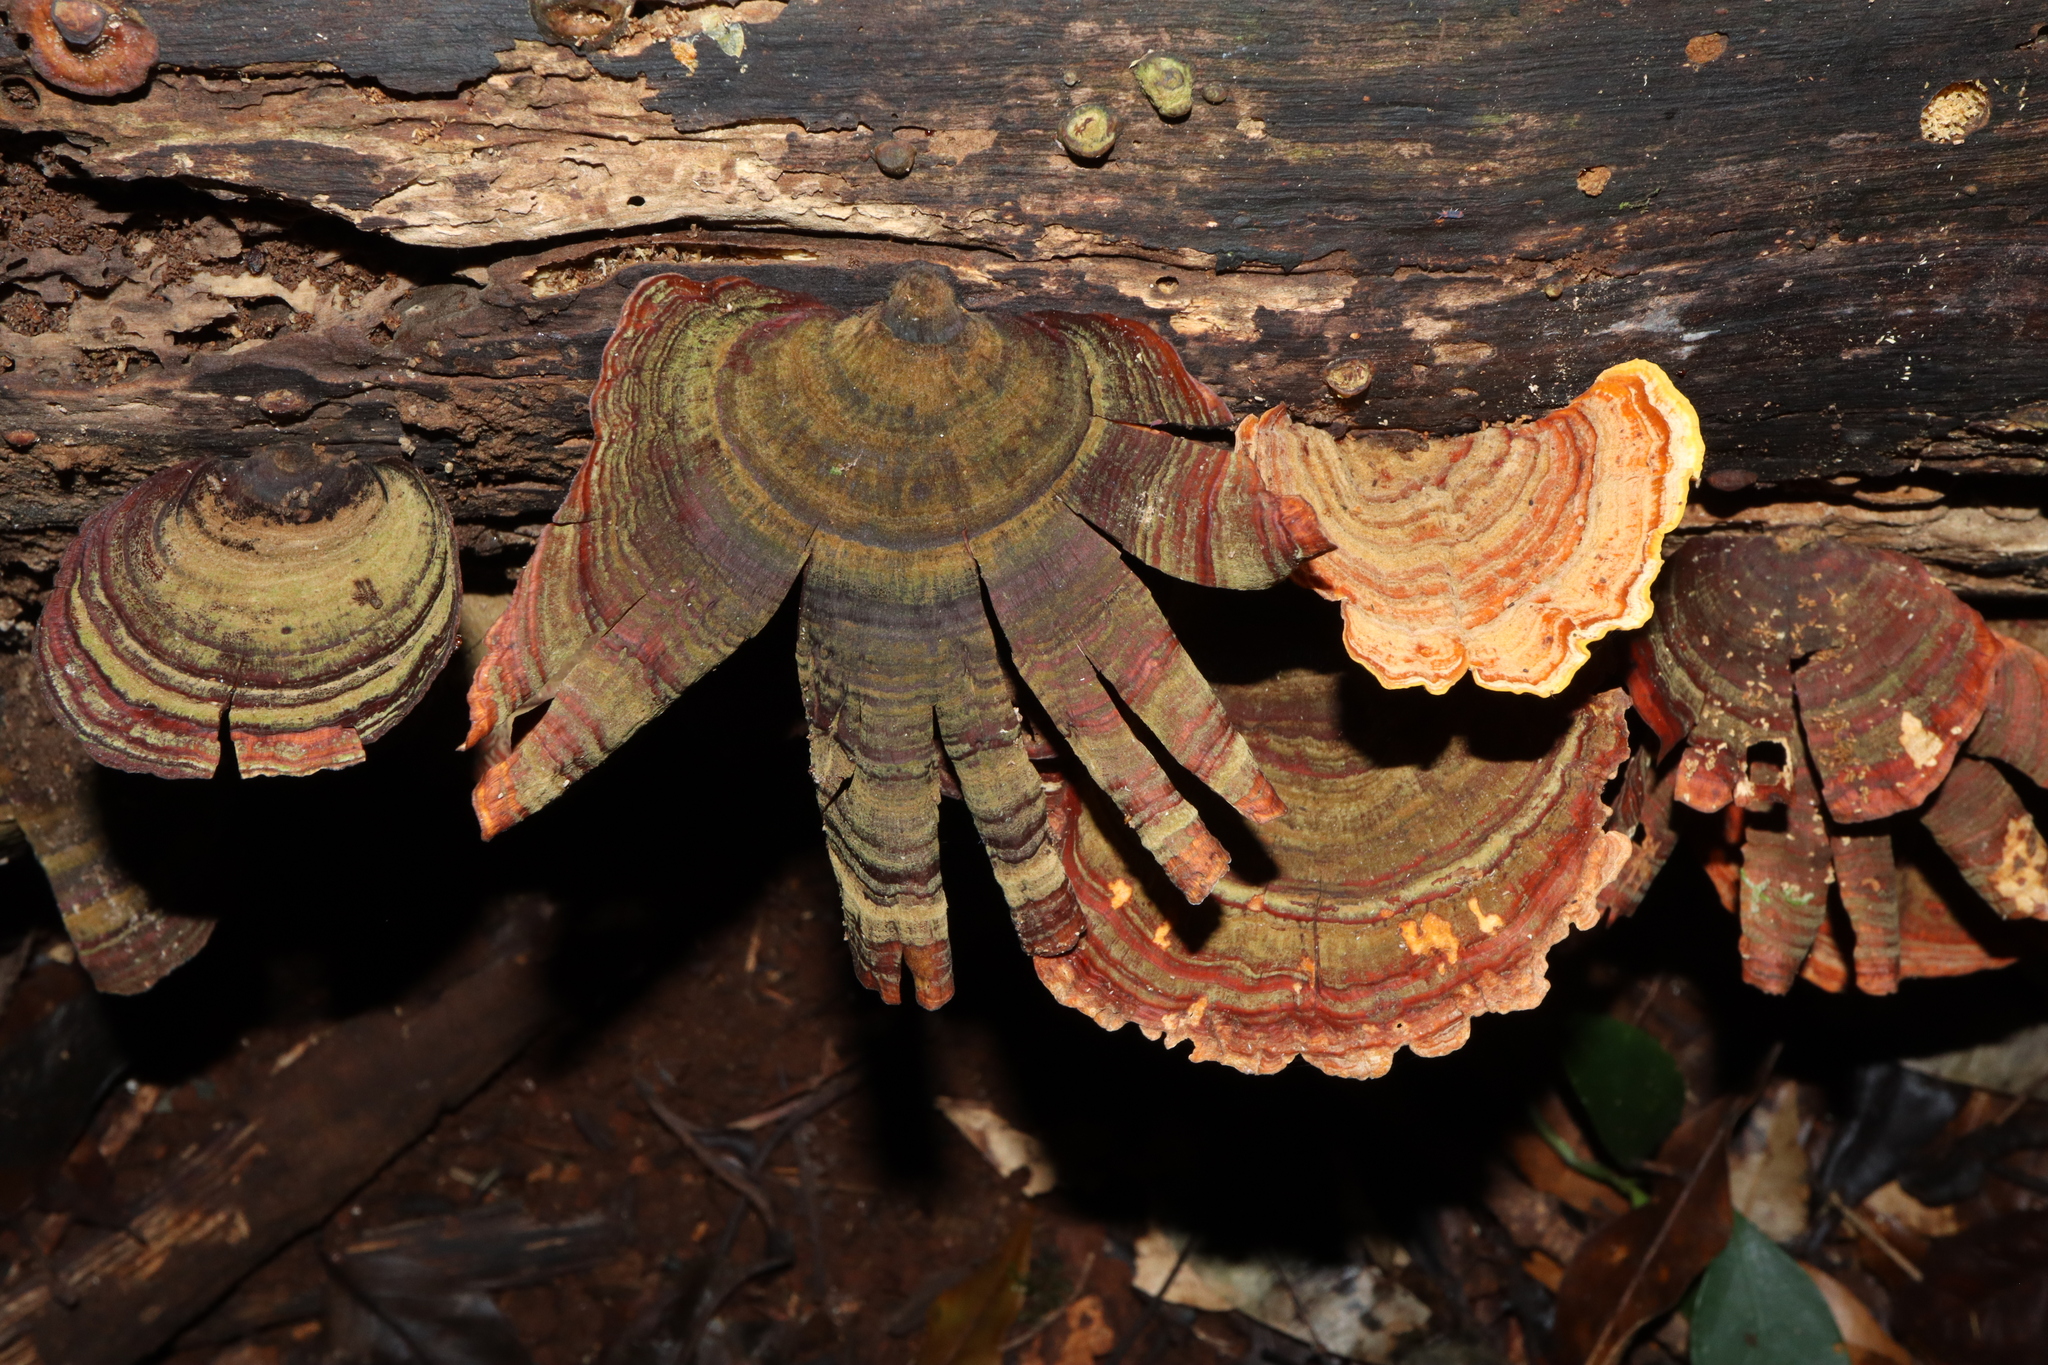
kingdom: Fungi
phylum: Basidiomycota
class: Agaricomycetes
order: Russulales
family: Stereaceae
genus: Stereum
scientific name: Stereum ostrea
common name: False turkeytail
